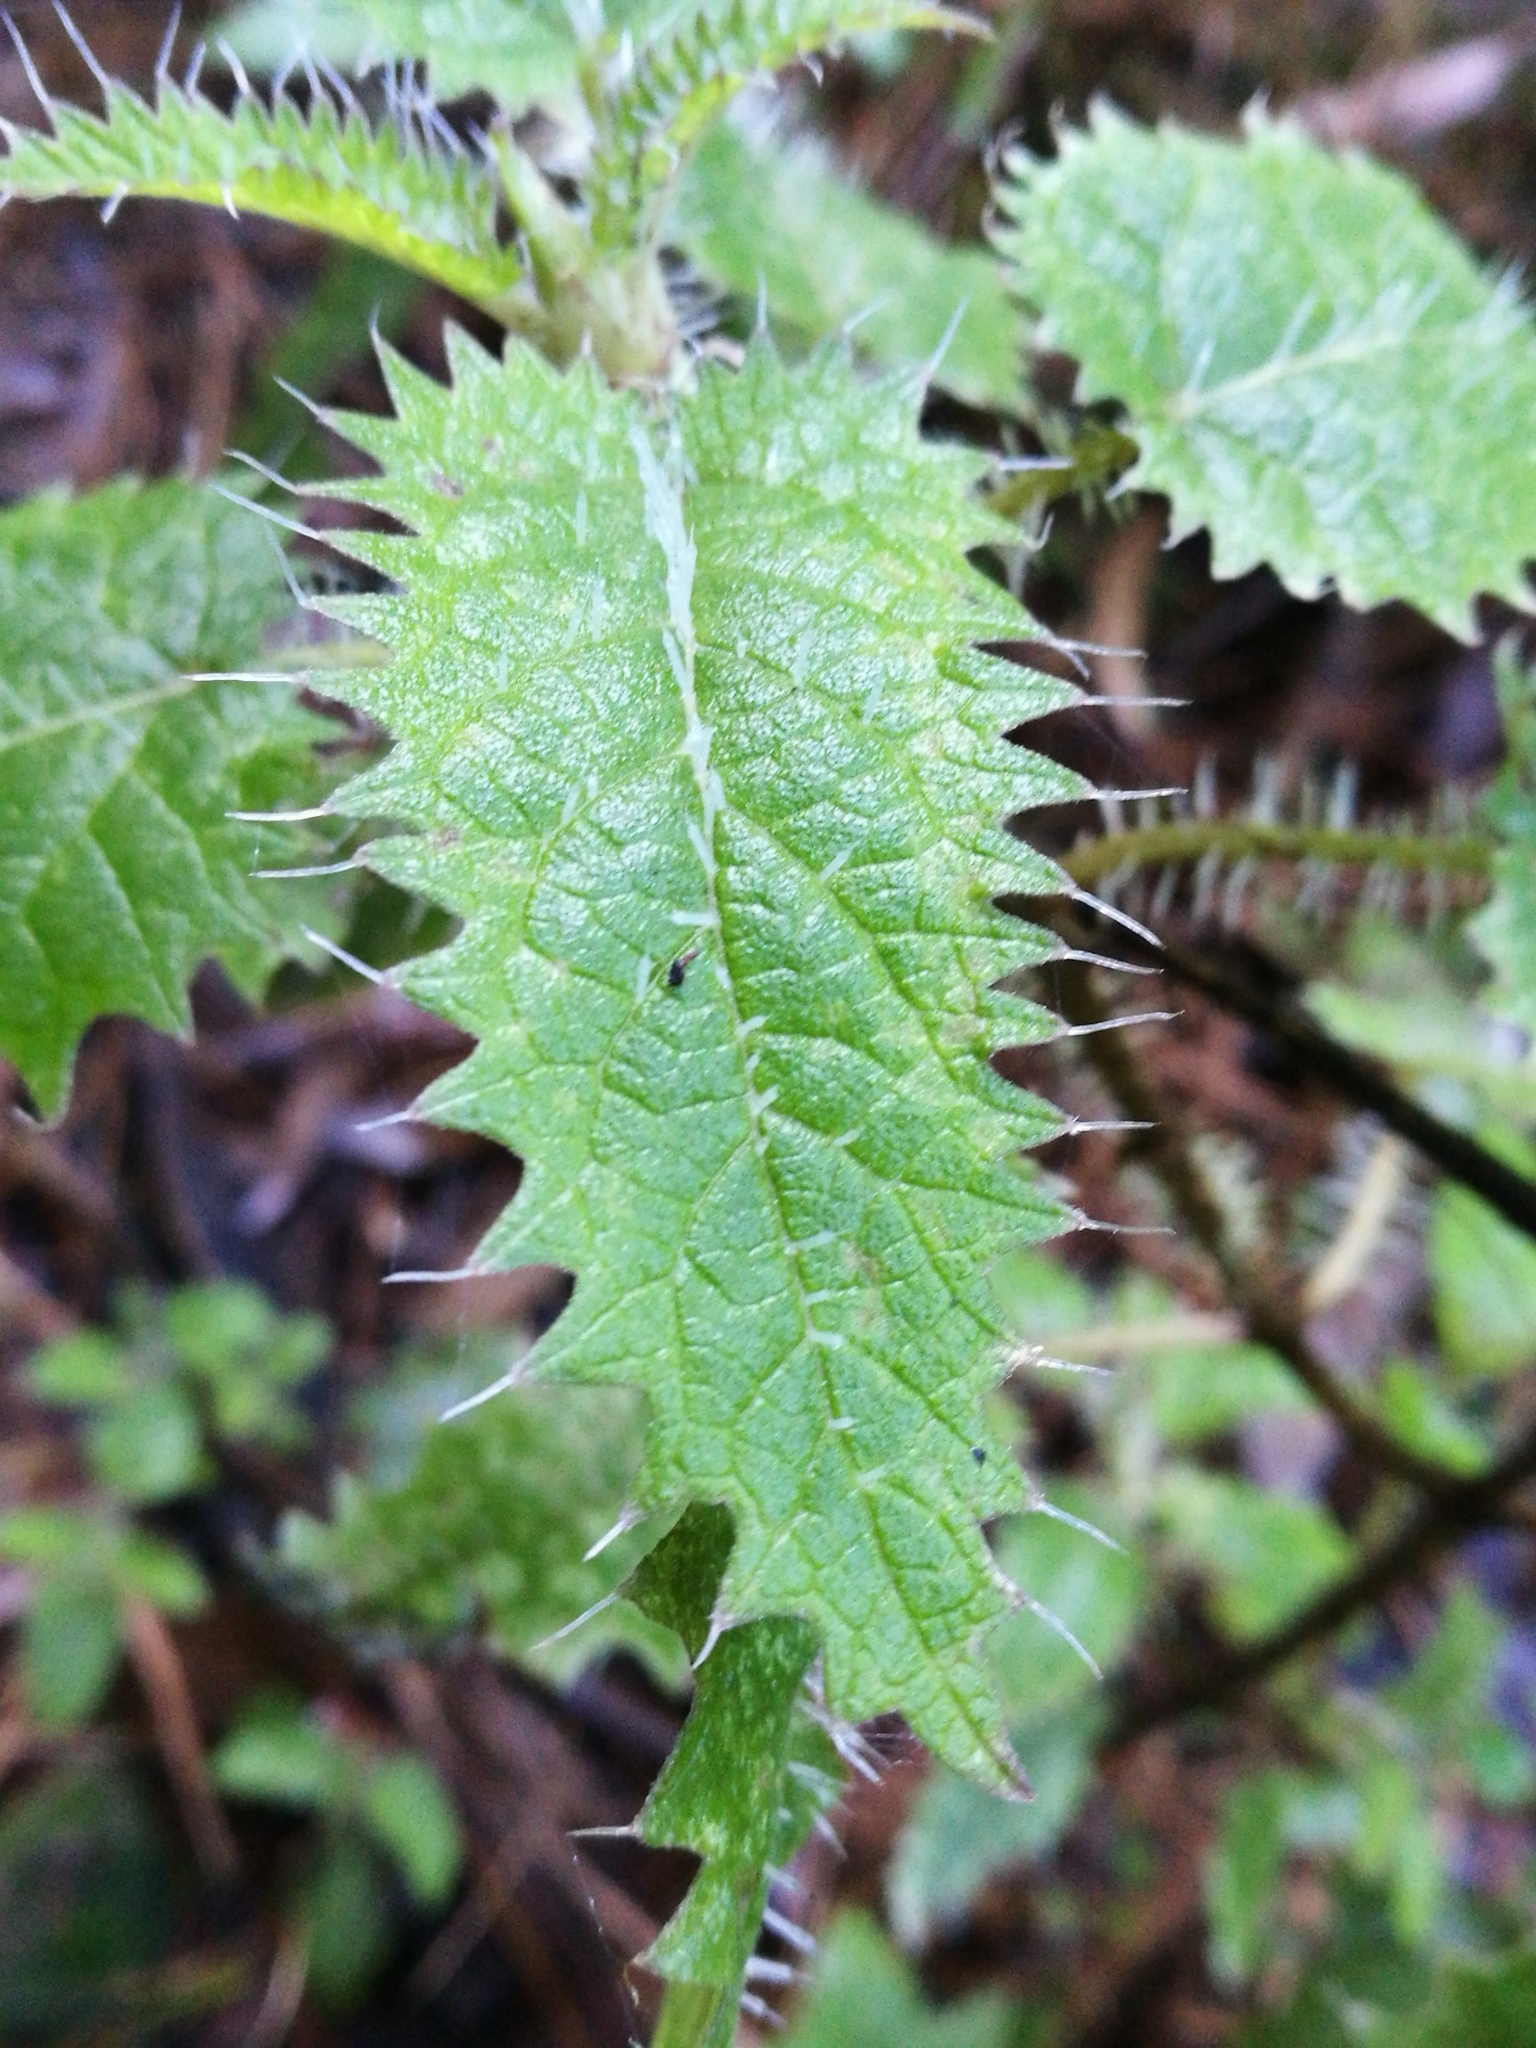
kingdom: Plantae
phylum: Tracheophyta
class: Magnoliopsida
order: Rosales
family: Urticaceae
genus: Urtica
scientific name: Urtica ferox
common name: Tree nettle
